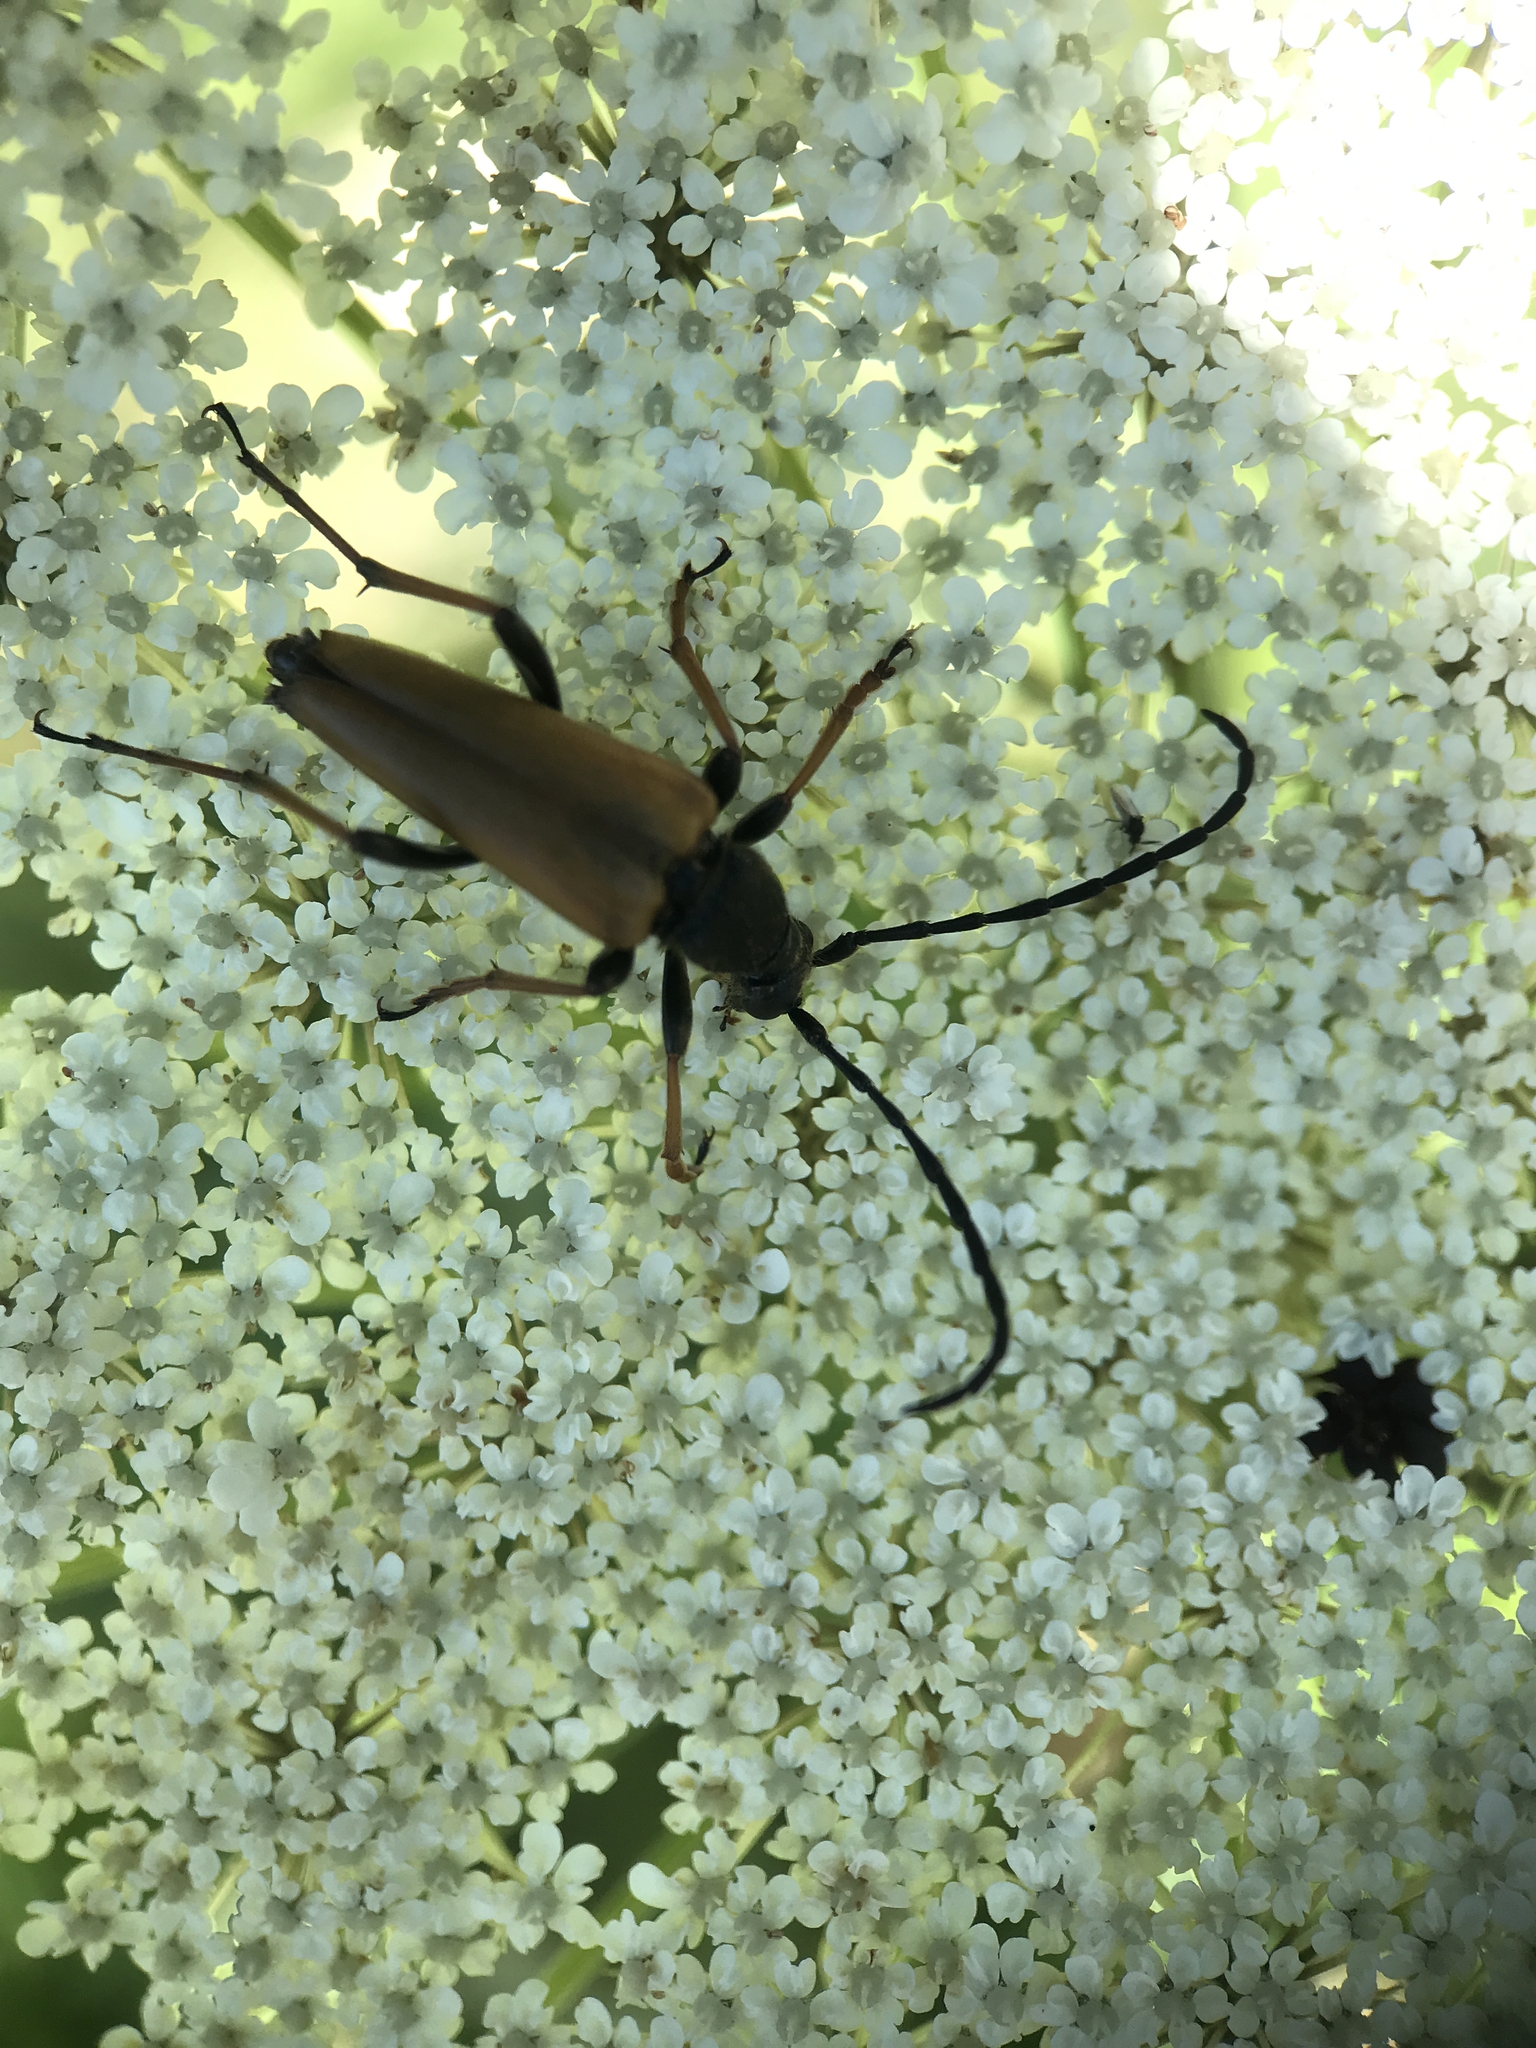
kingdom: Animalia
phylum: Arthropoda
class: Insecta
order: Coleoptera
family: Cerambycidae
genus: Stictoleptura
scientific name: Stictoleptura rubra
